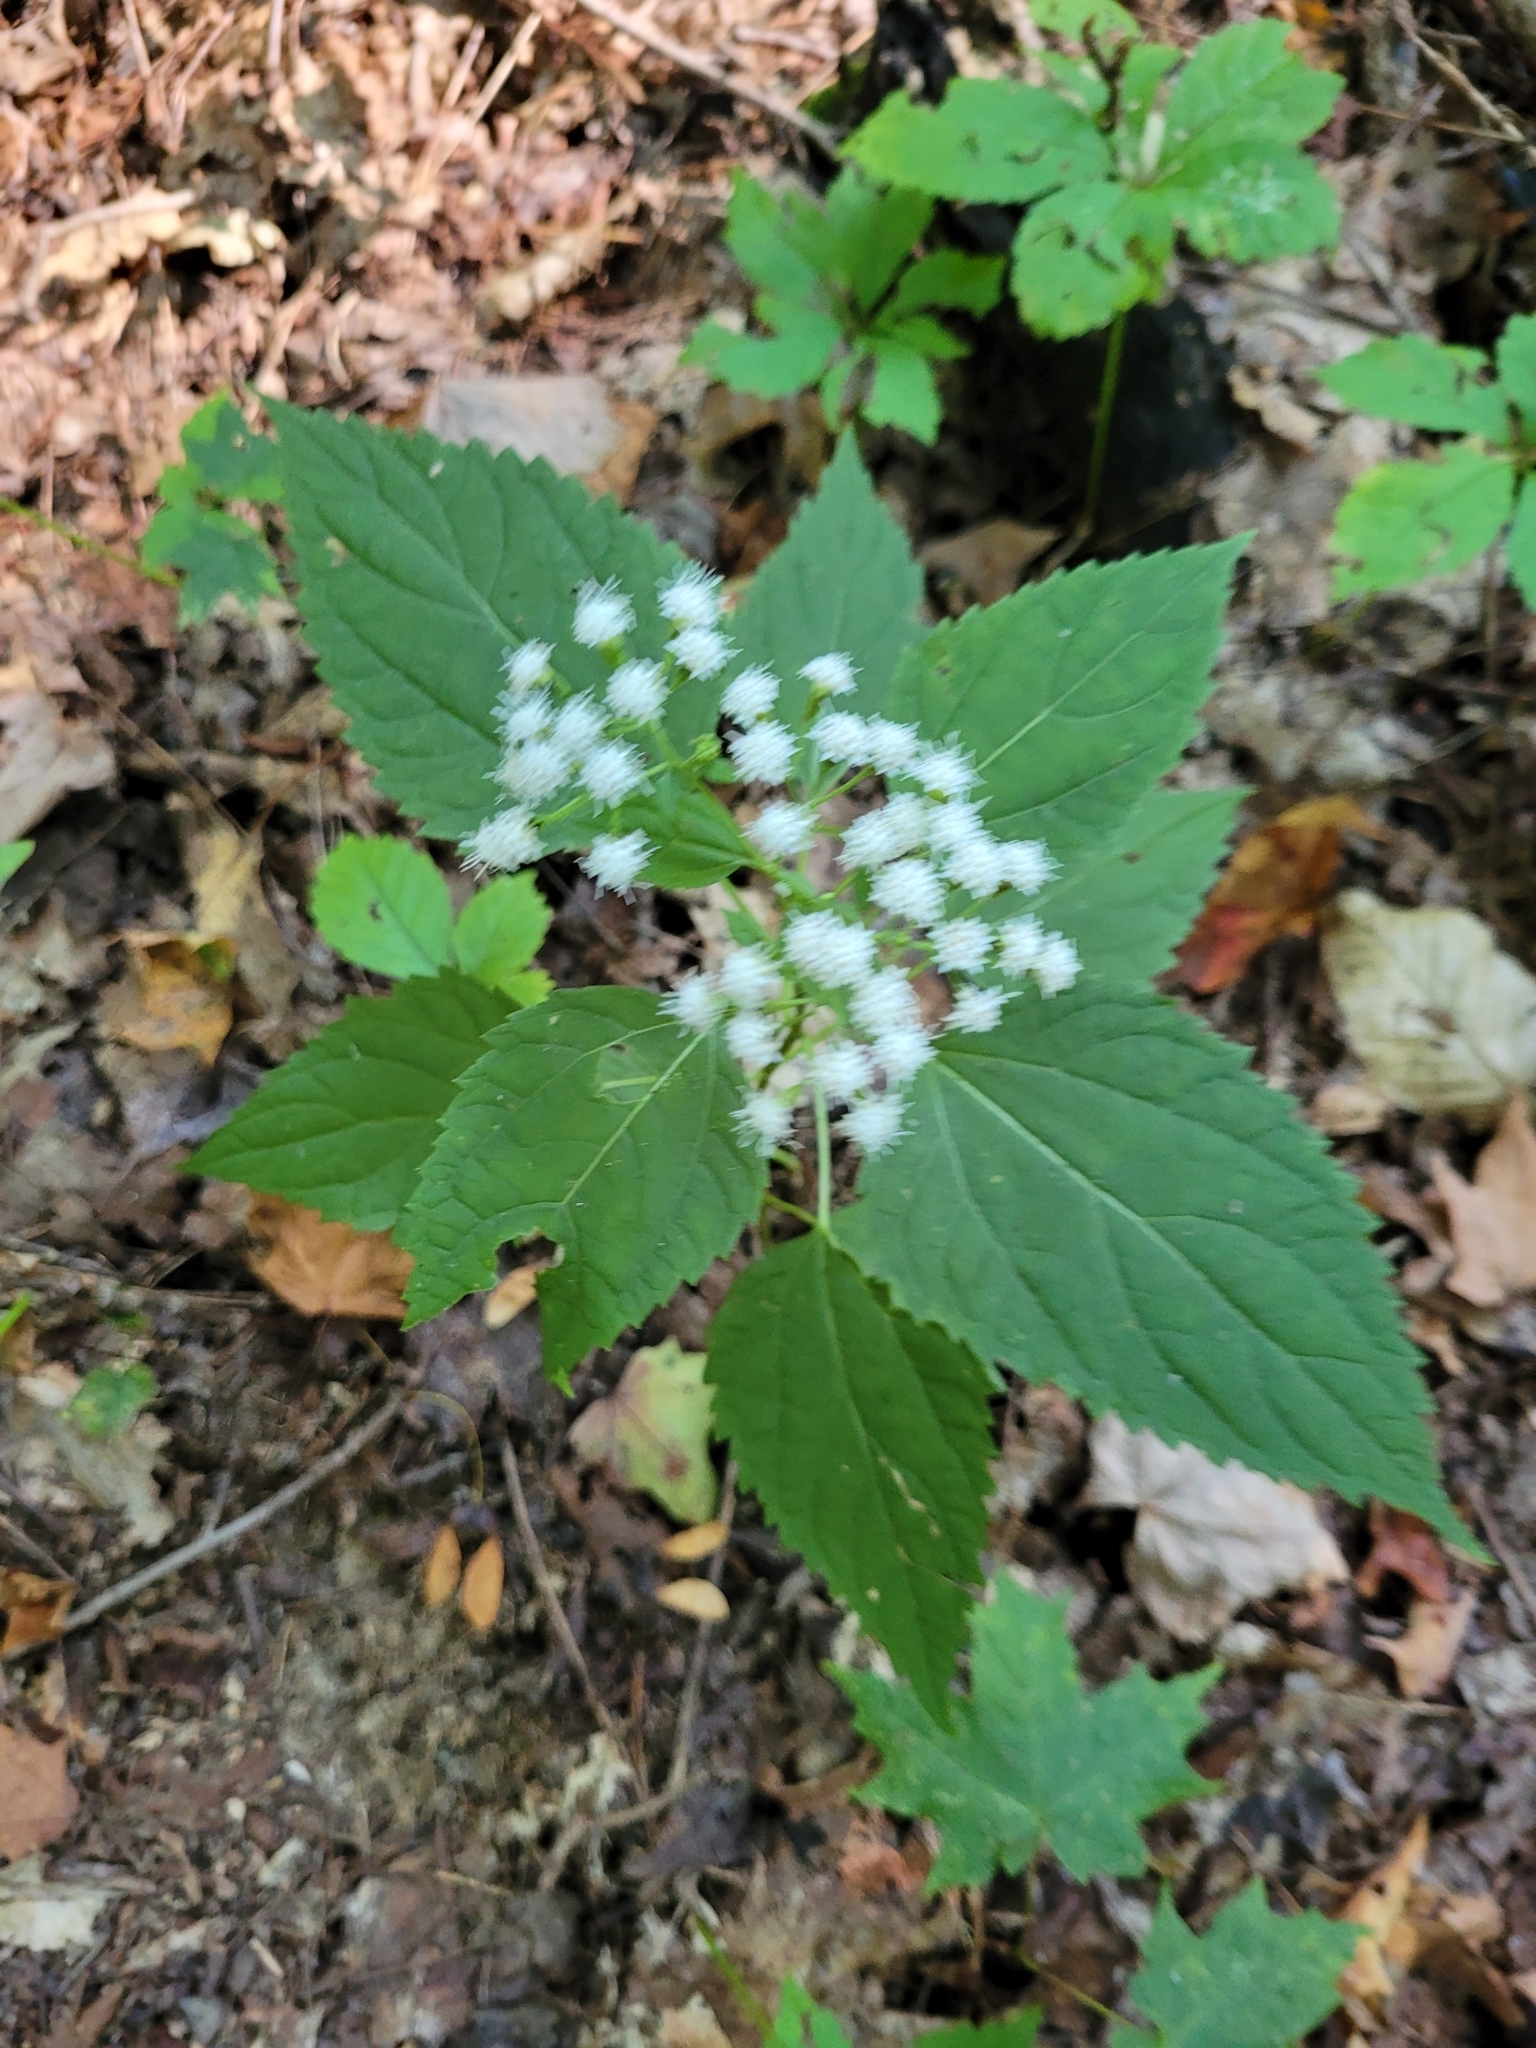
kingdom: Plantae
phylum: Tracheophyta
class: Magnoliopsida
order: Asterales
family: Asteraceae
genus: Ageratina
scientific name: Ageratina altissima
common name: White snakeroot
